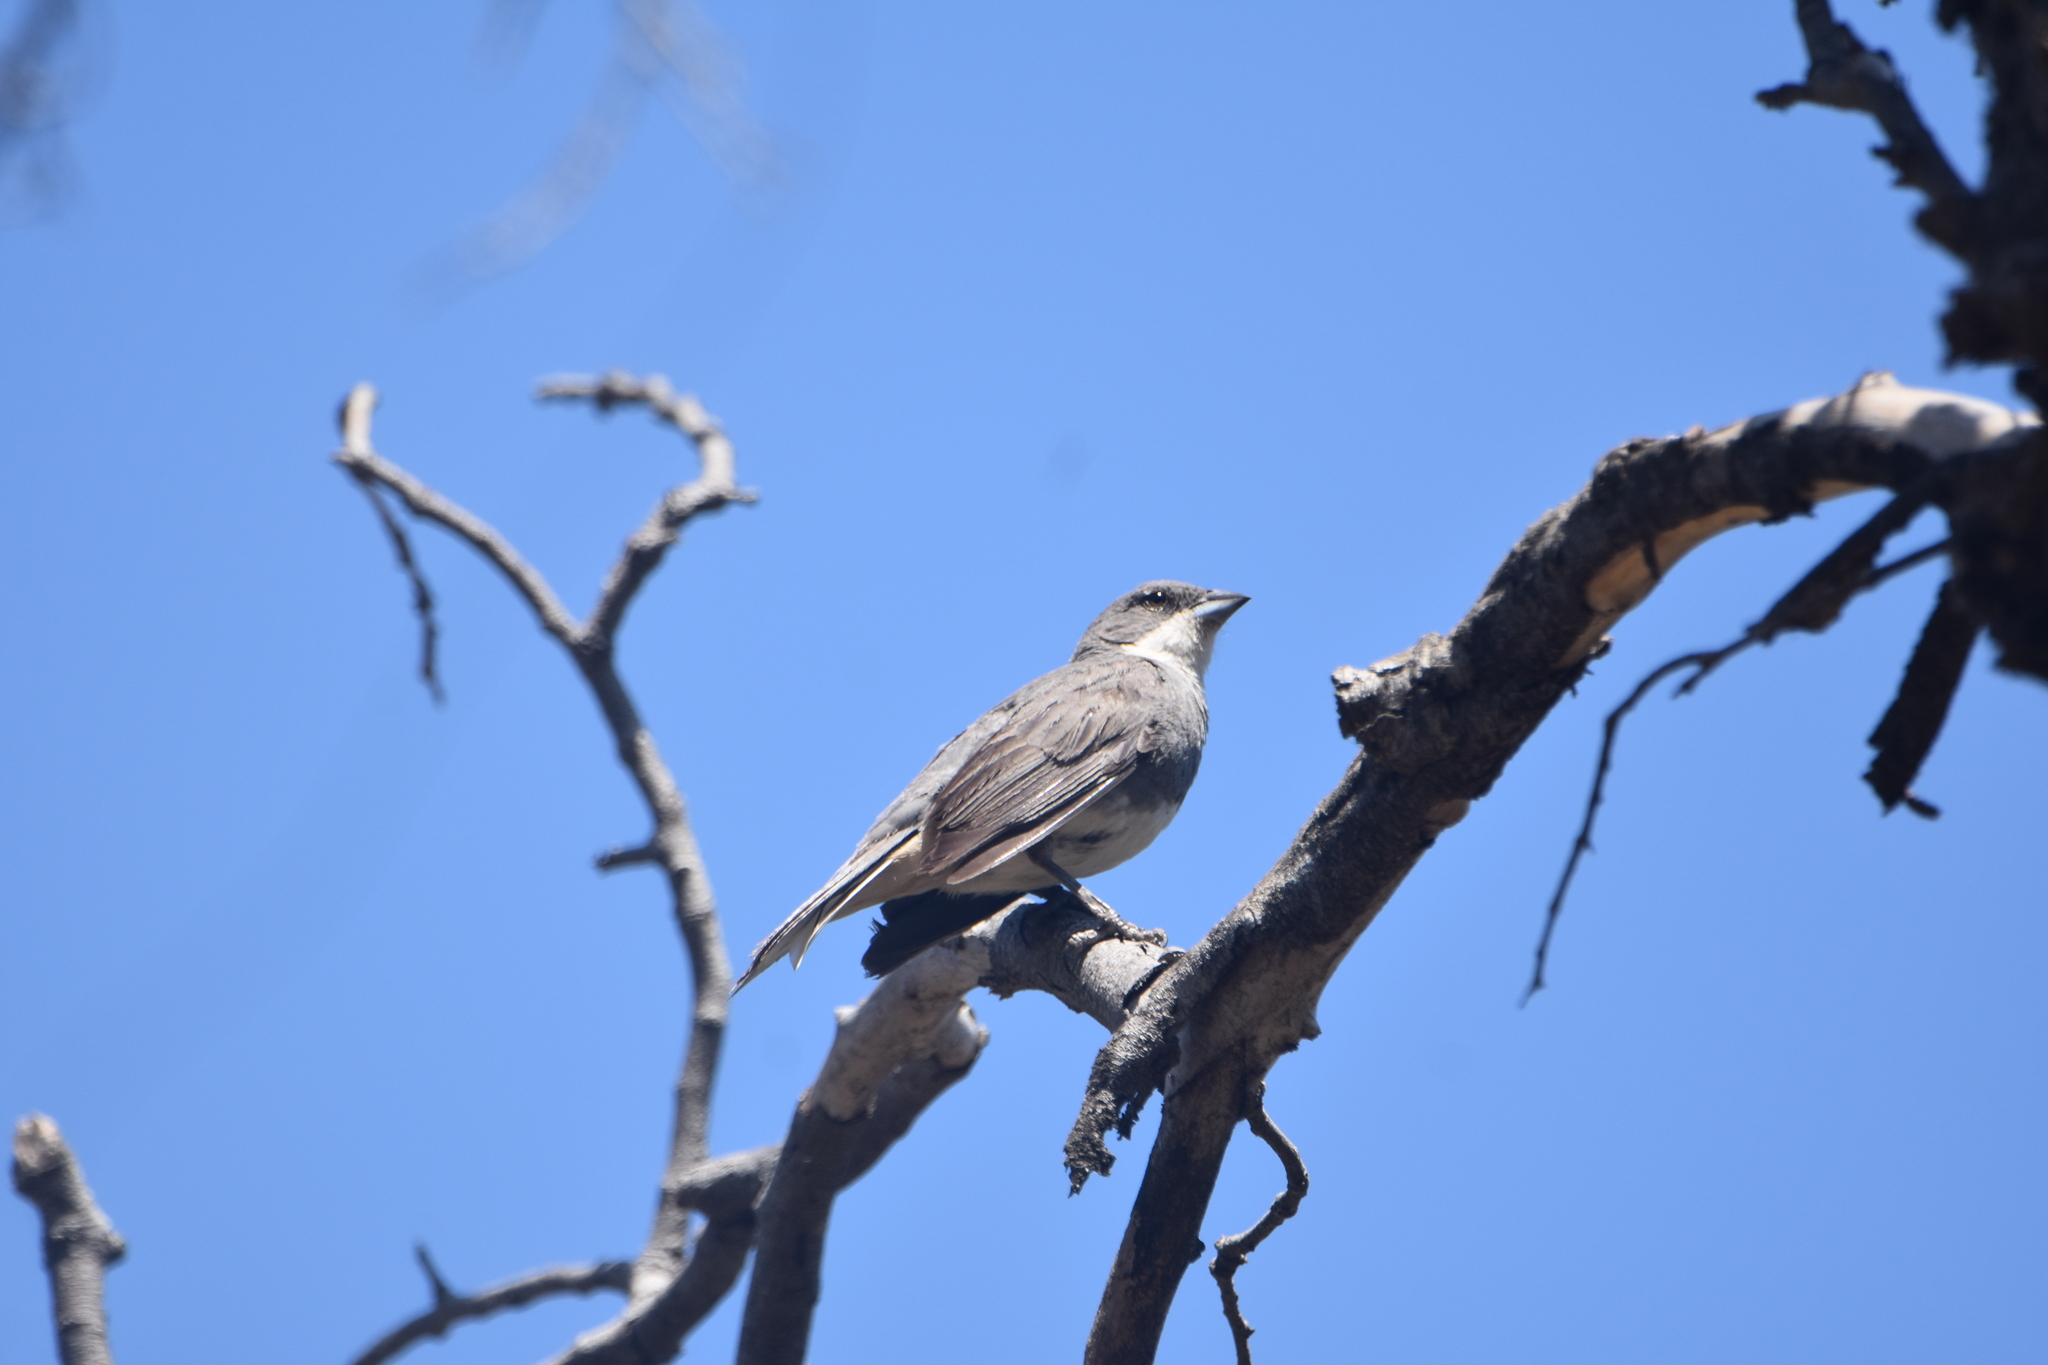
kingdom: Animalia
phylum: Chordata
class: Aves
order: Passeriformes
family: Thraupidae
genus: Diuca
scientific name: Diuca diuca
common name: Common diuca finch
